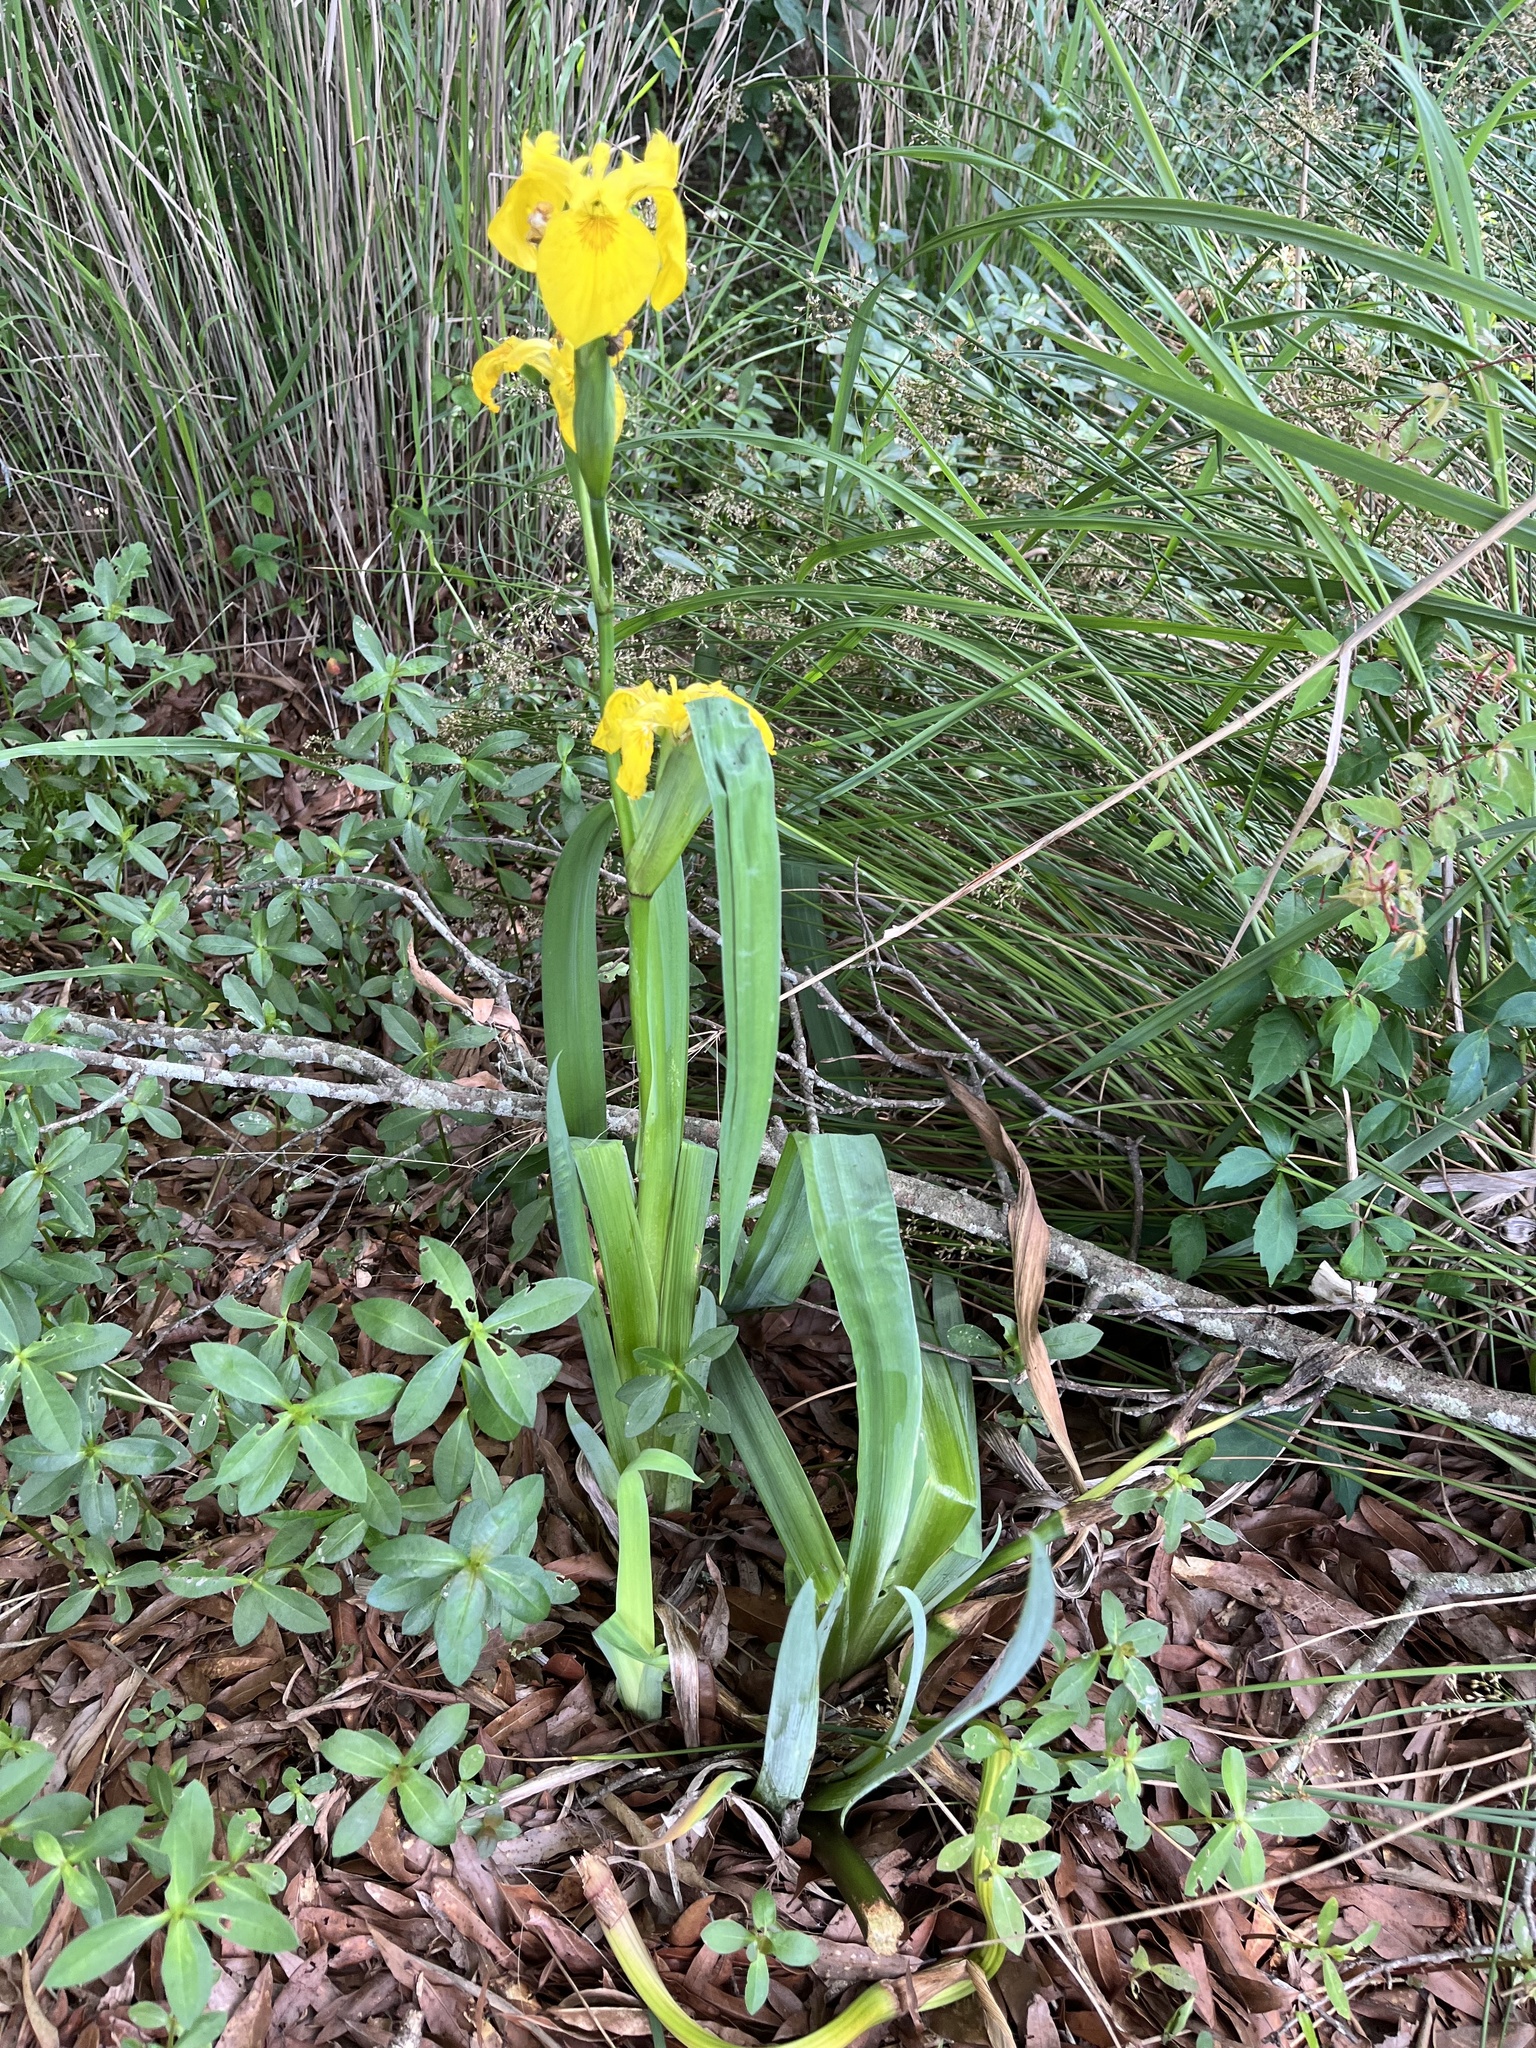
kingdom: Plantae
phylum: Tracheophyta
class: Liliopsida
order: Asparagales
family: Iridaceae
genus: Iris
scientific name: Iris pseudacorus
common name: Yellow flag
